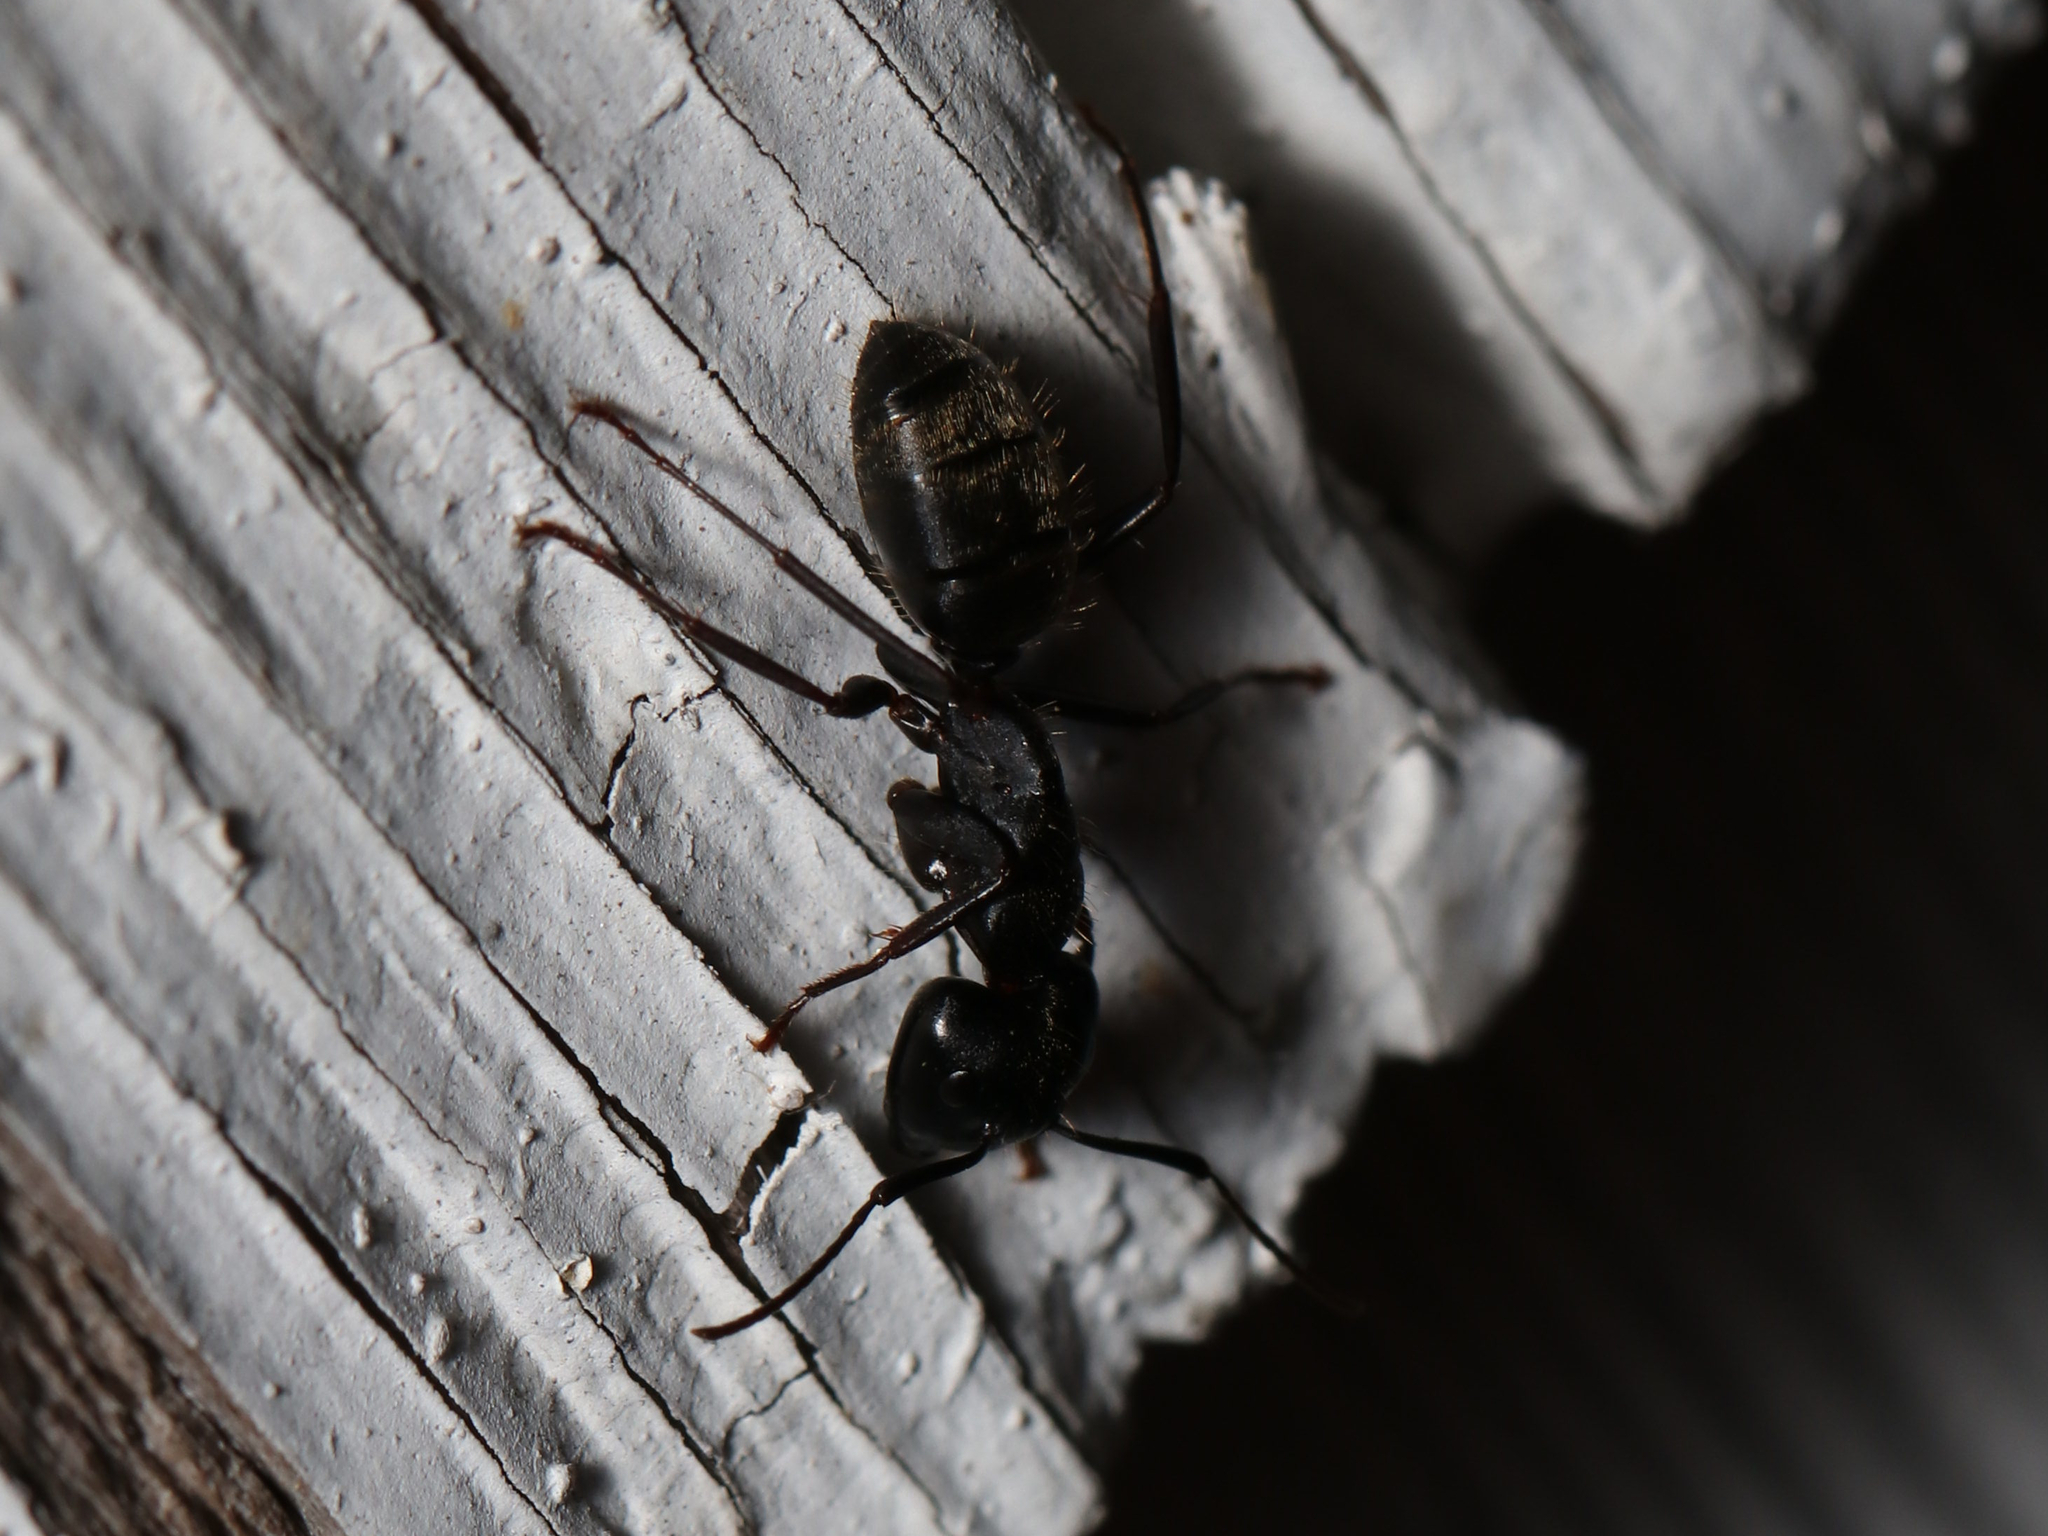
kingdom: Animalia
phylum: Arthropoda
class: Insecta
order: Hymenoptera
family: Formicidae
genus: Camponotus
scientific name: Camponotus pennsylvanicus
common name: Black carpenter ant
